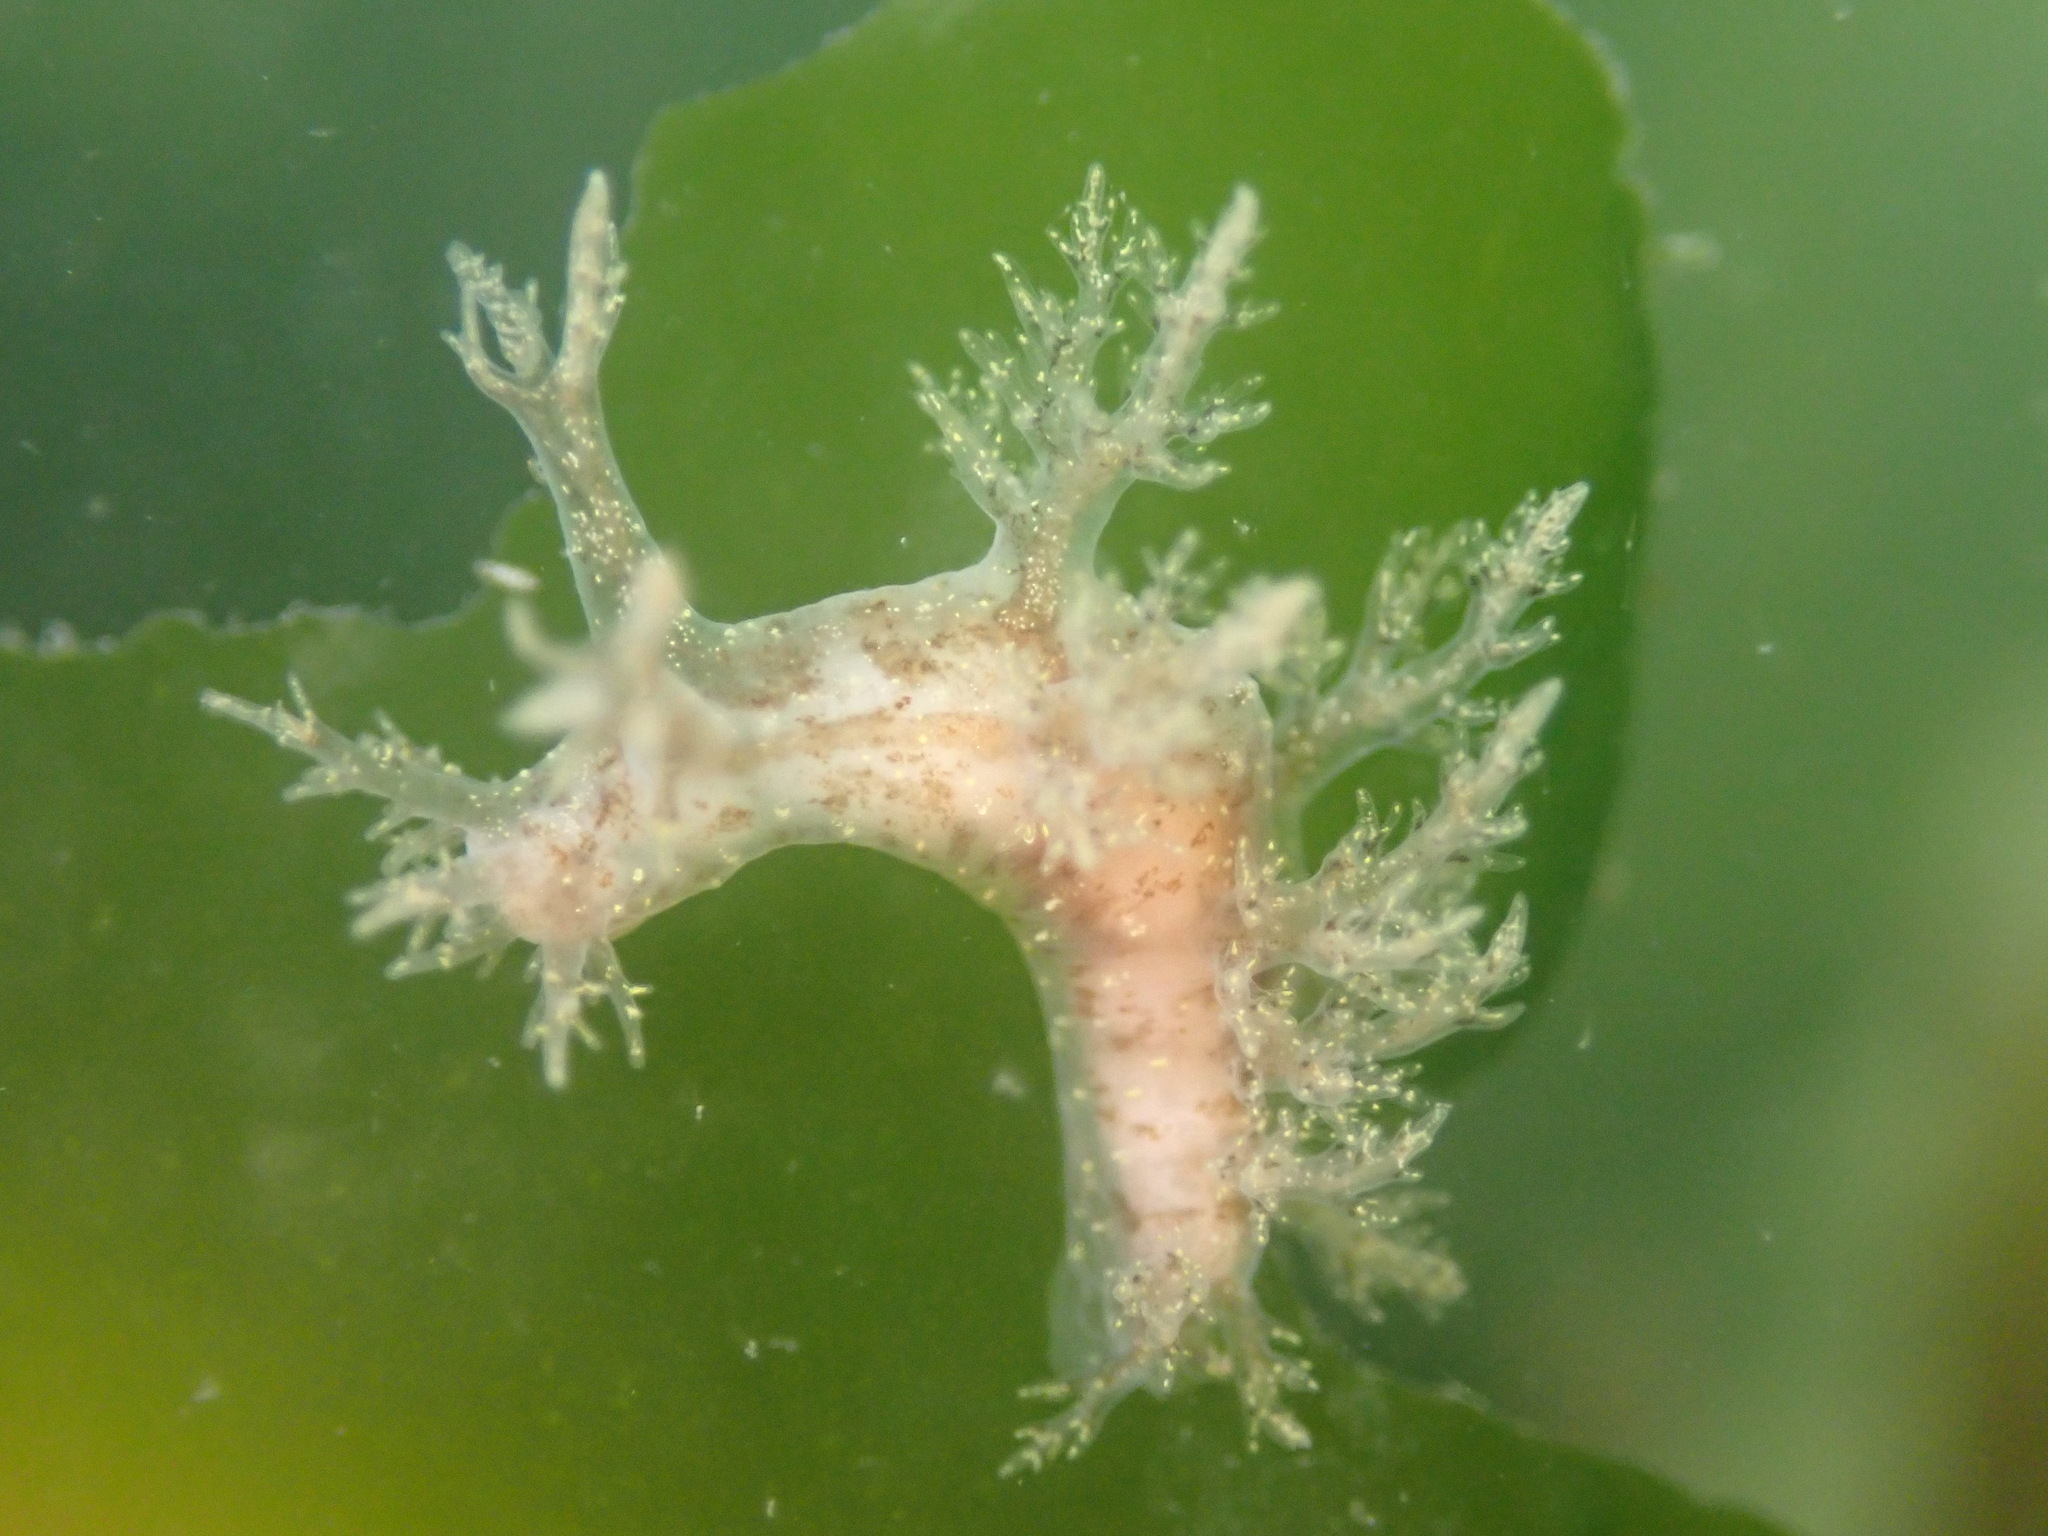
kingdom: Animalia
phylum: Mollusca
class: Gastropoda
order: Nudibranchia
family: Dendronotidae
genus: Dendronotus
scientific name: Dendronotus venustus
